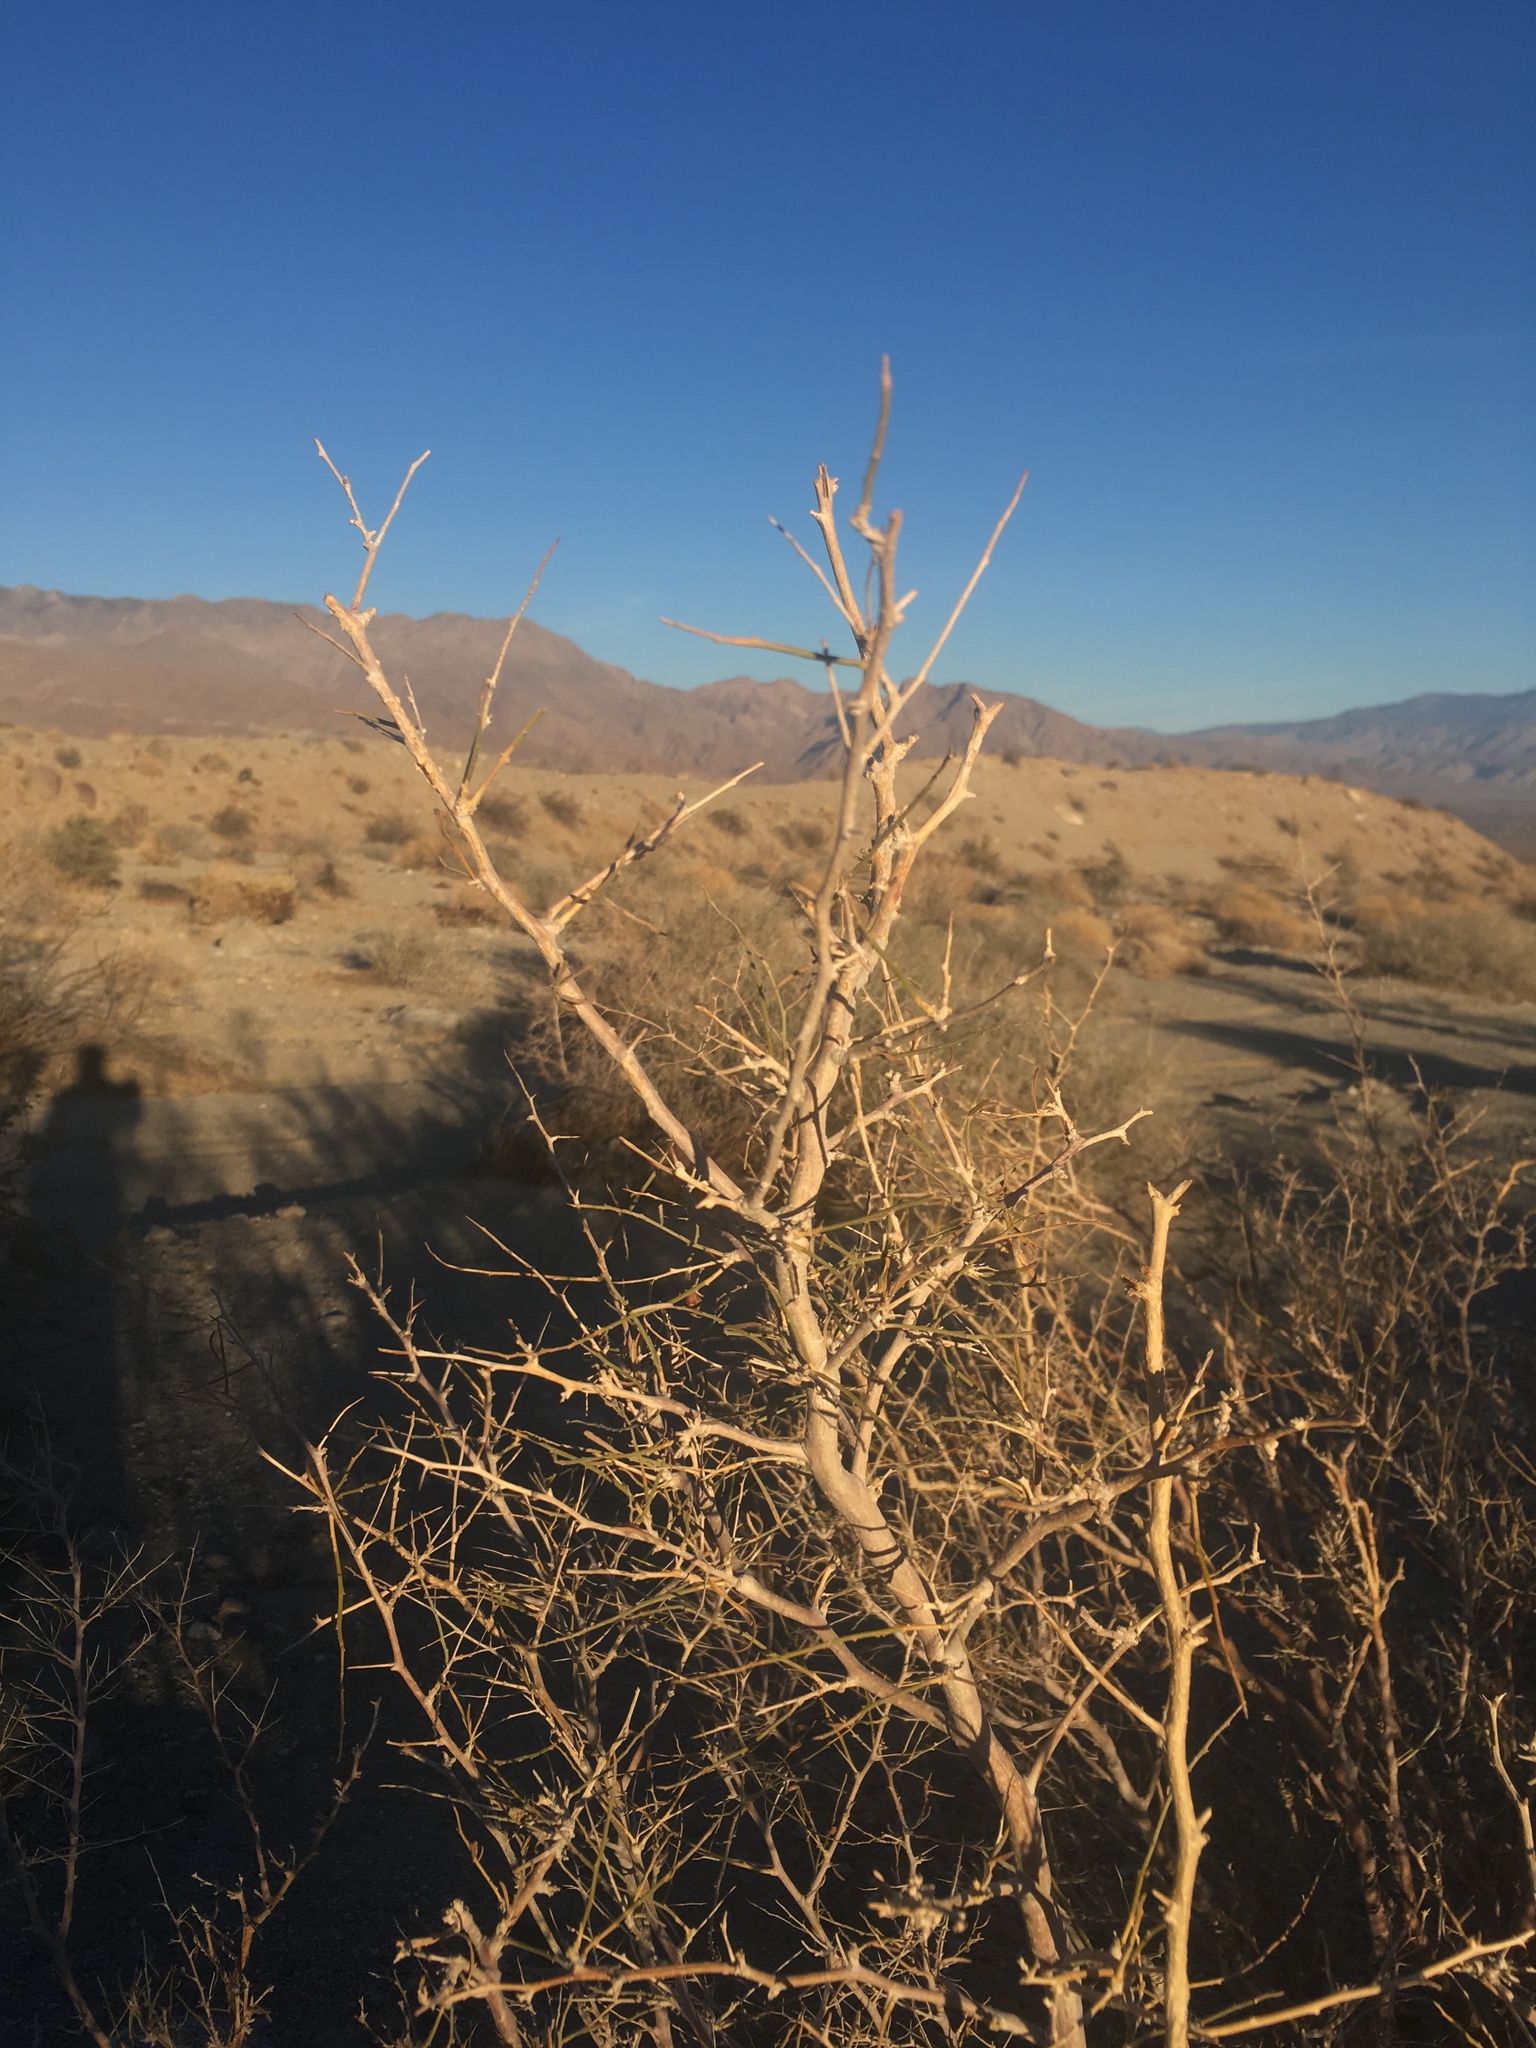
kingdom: Plantae
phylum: Tracheophyta
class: Magnoliopsida
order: Fabales
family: Fabaceae
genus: Psorothamnus
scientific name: Psorothamnus schottii
